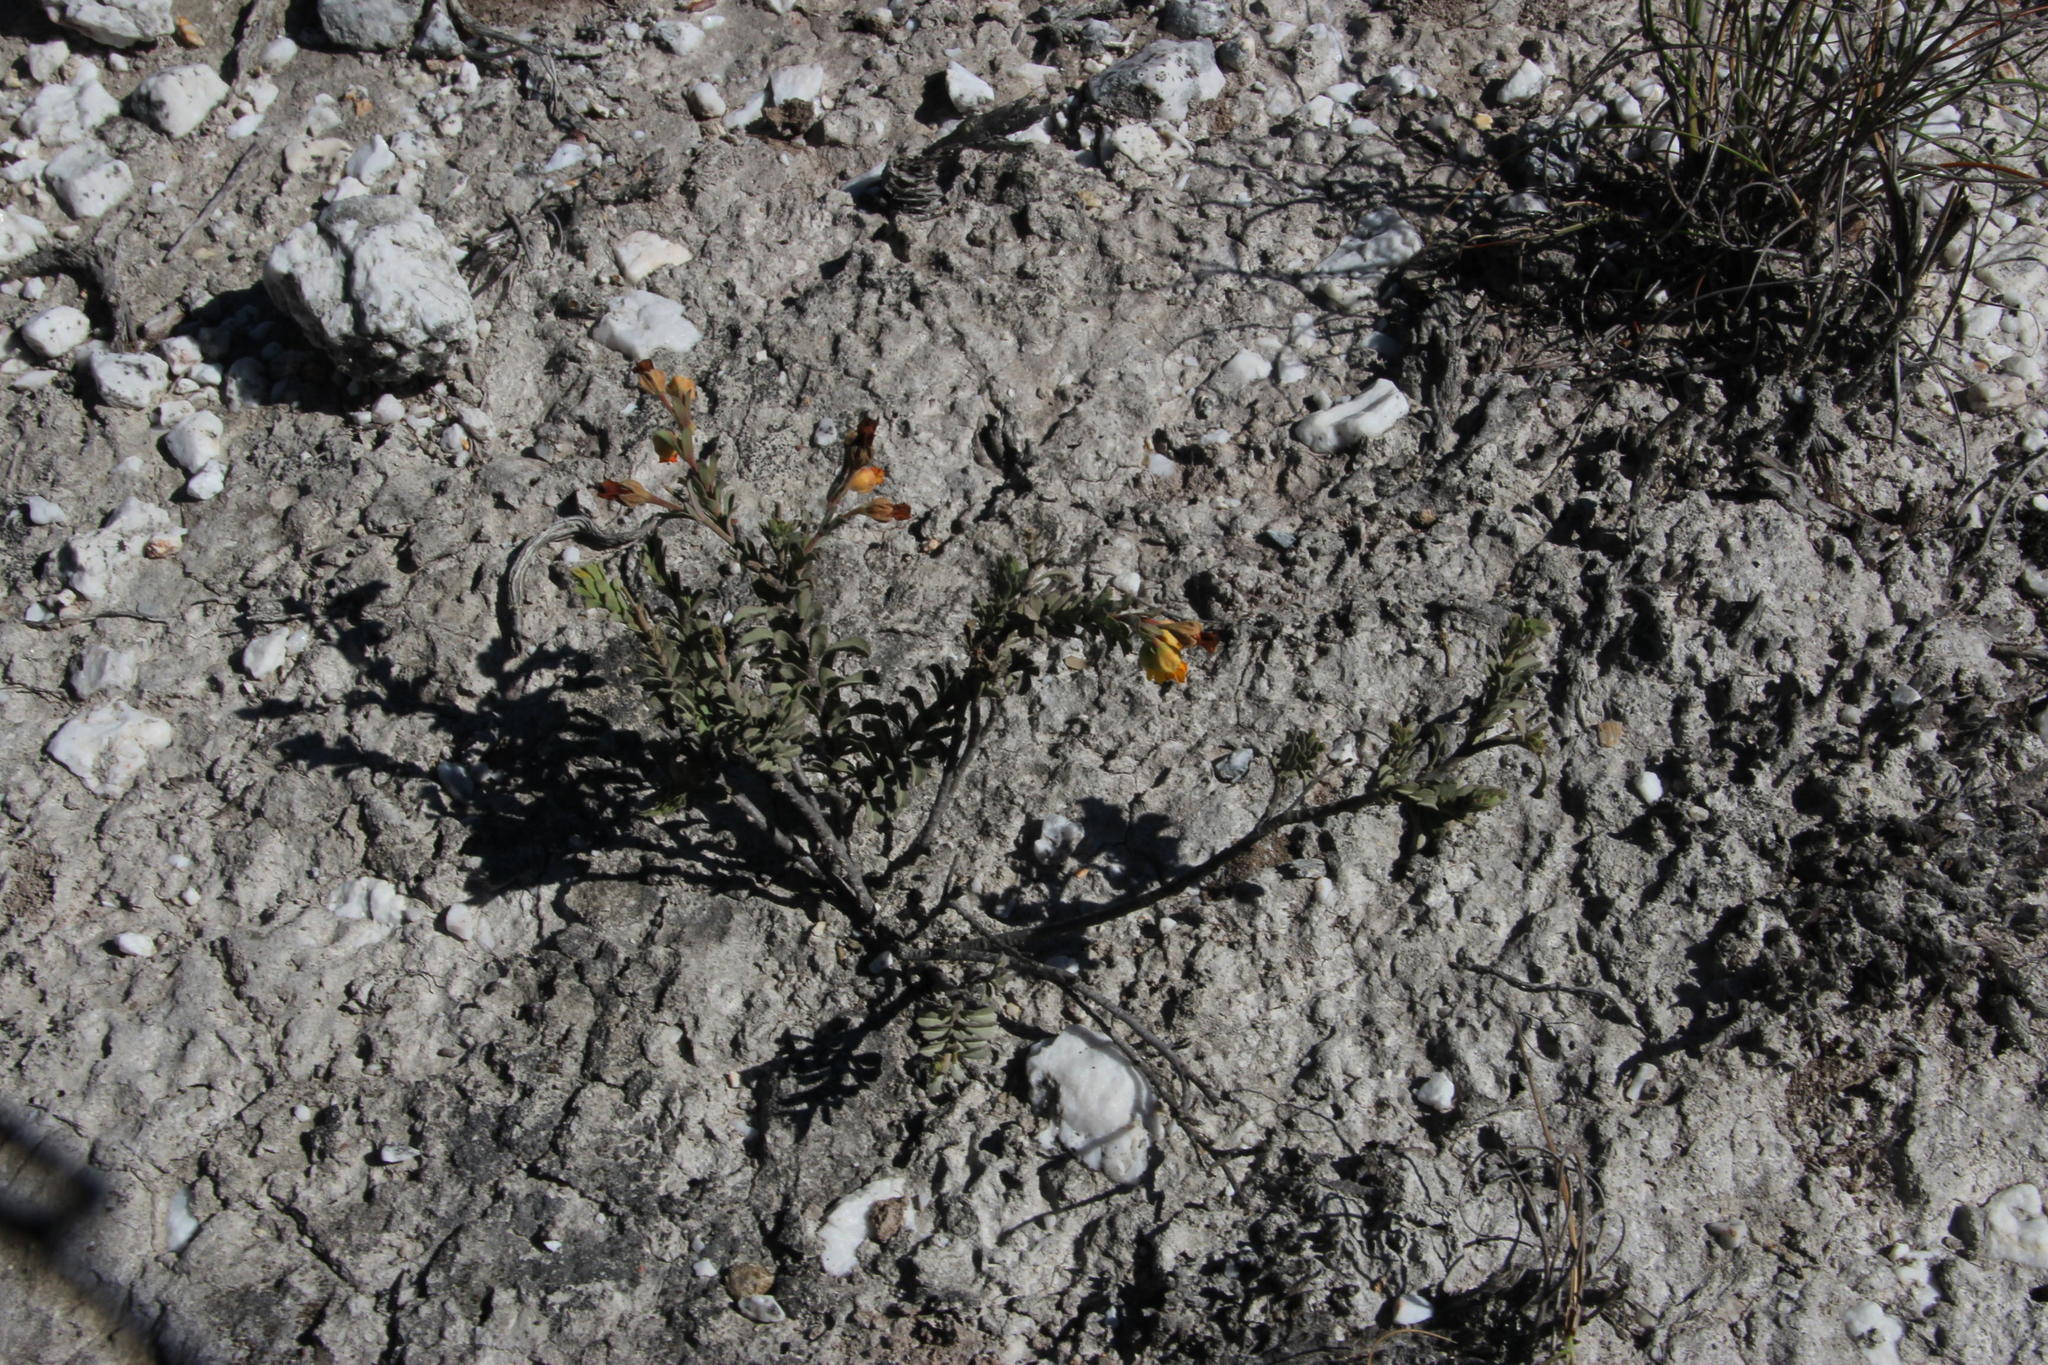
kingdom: Plantae
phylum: Tracheophyta
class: Magnoliopsida
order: Malvales
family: Malvaceae
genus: Hermannia
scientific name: Hermannia trifoliata
